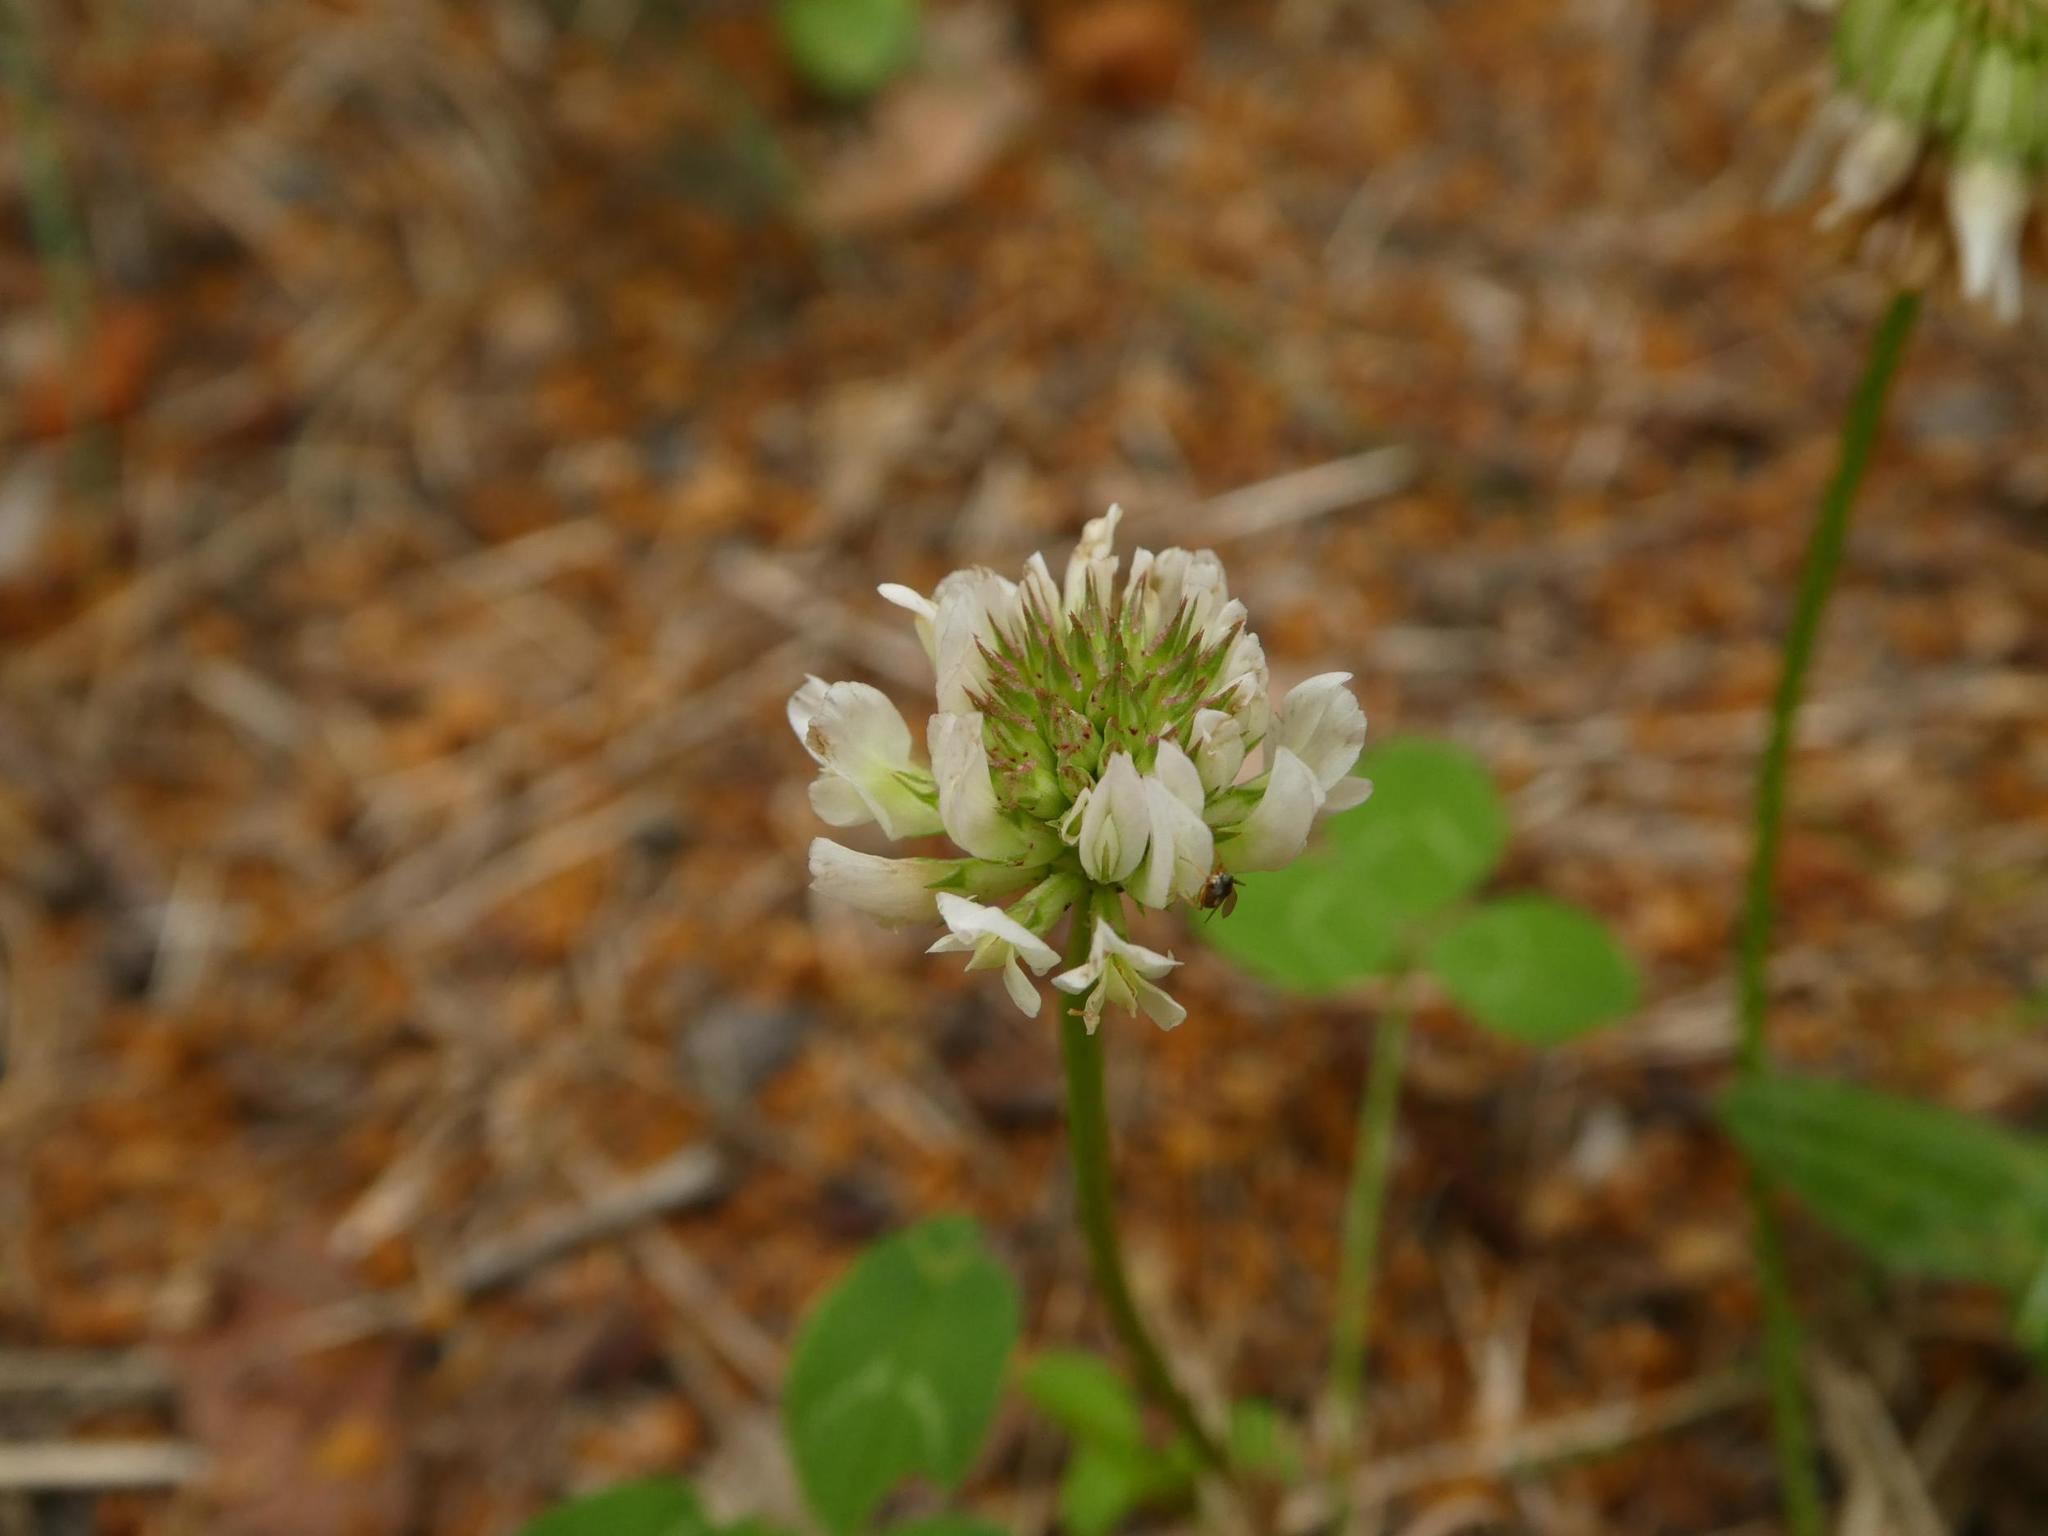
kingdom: Plantae
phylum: Tracheophyta
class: Magnoliopsida
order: Fabales
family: Fabaceae
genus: Trifolium
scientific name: Trifolium repens
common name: White clover
